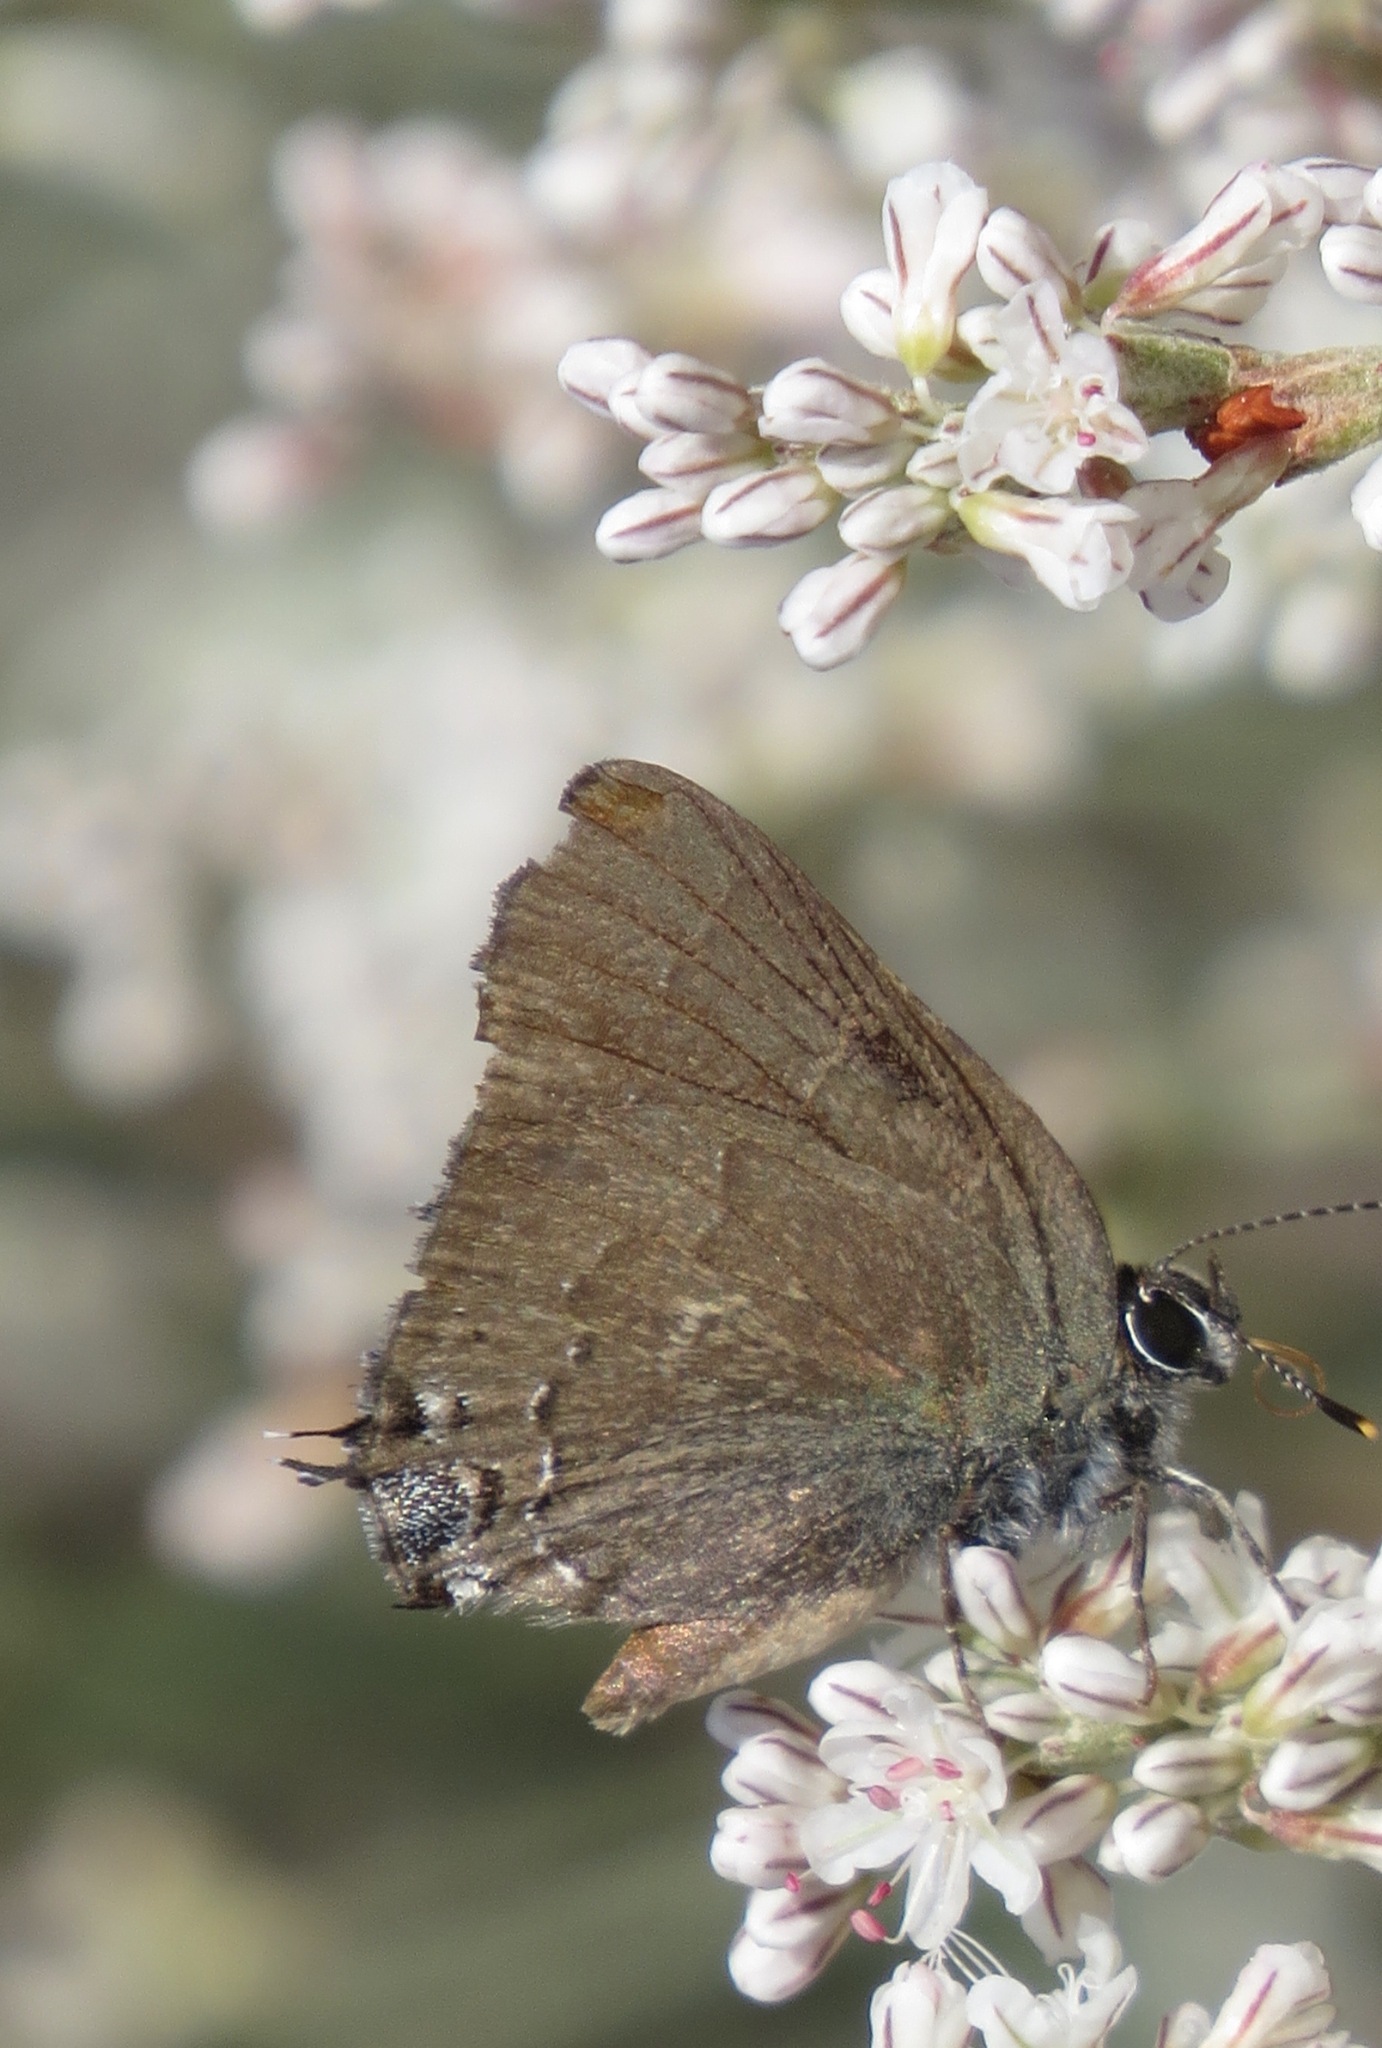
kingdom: Animalia
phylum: Arthropoda
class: Insecta
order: Lepidoptera
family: Lycaenidae
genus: Strymon
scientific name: Strymon saepium
